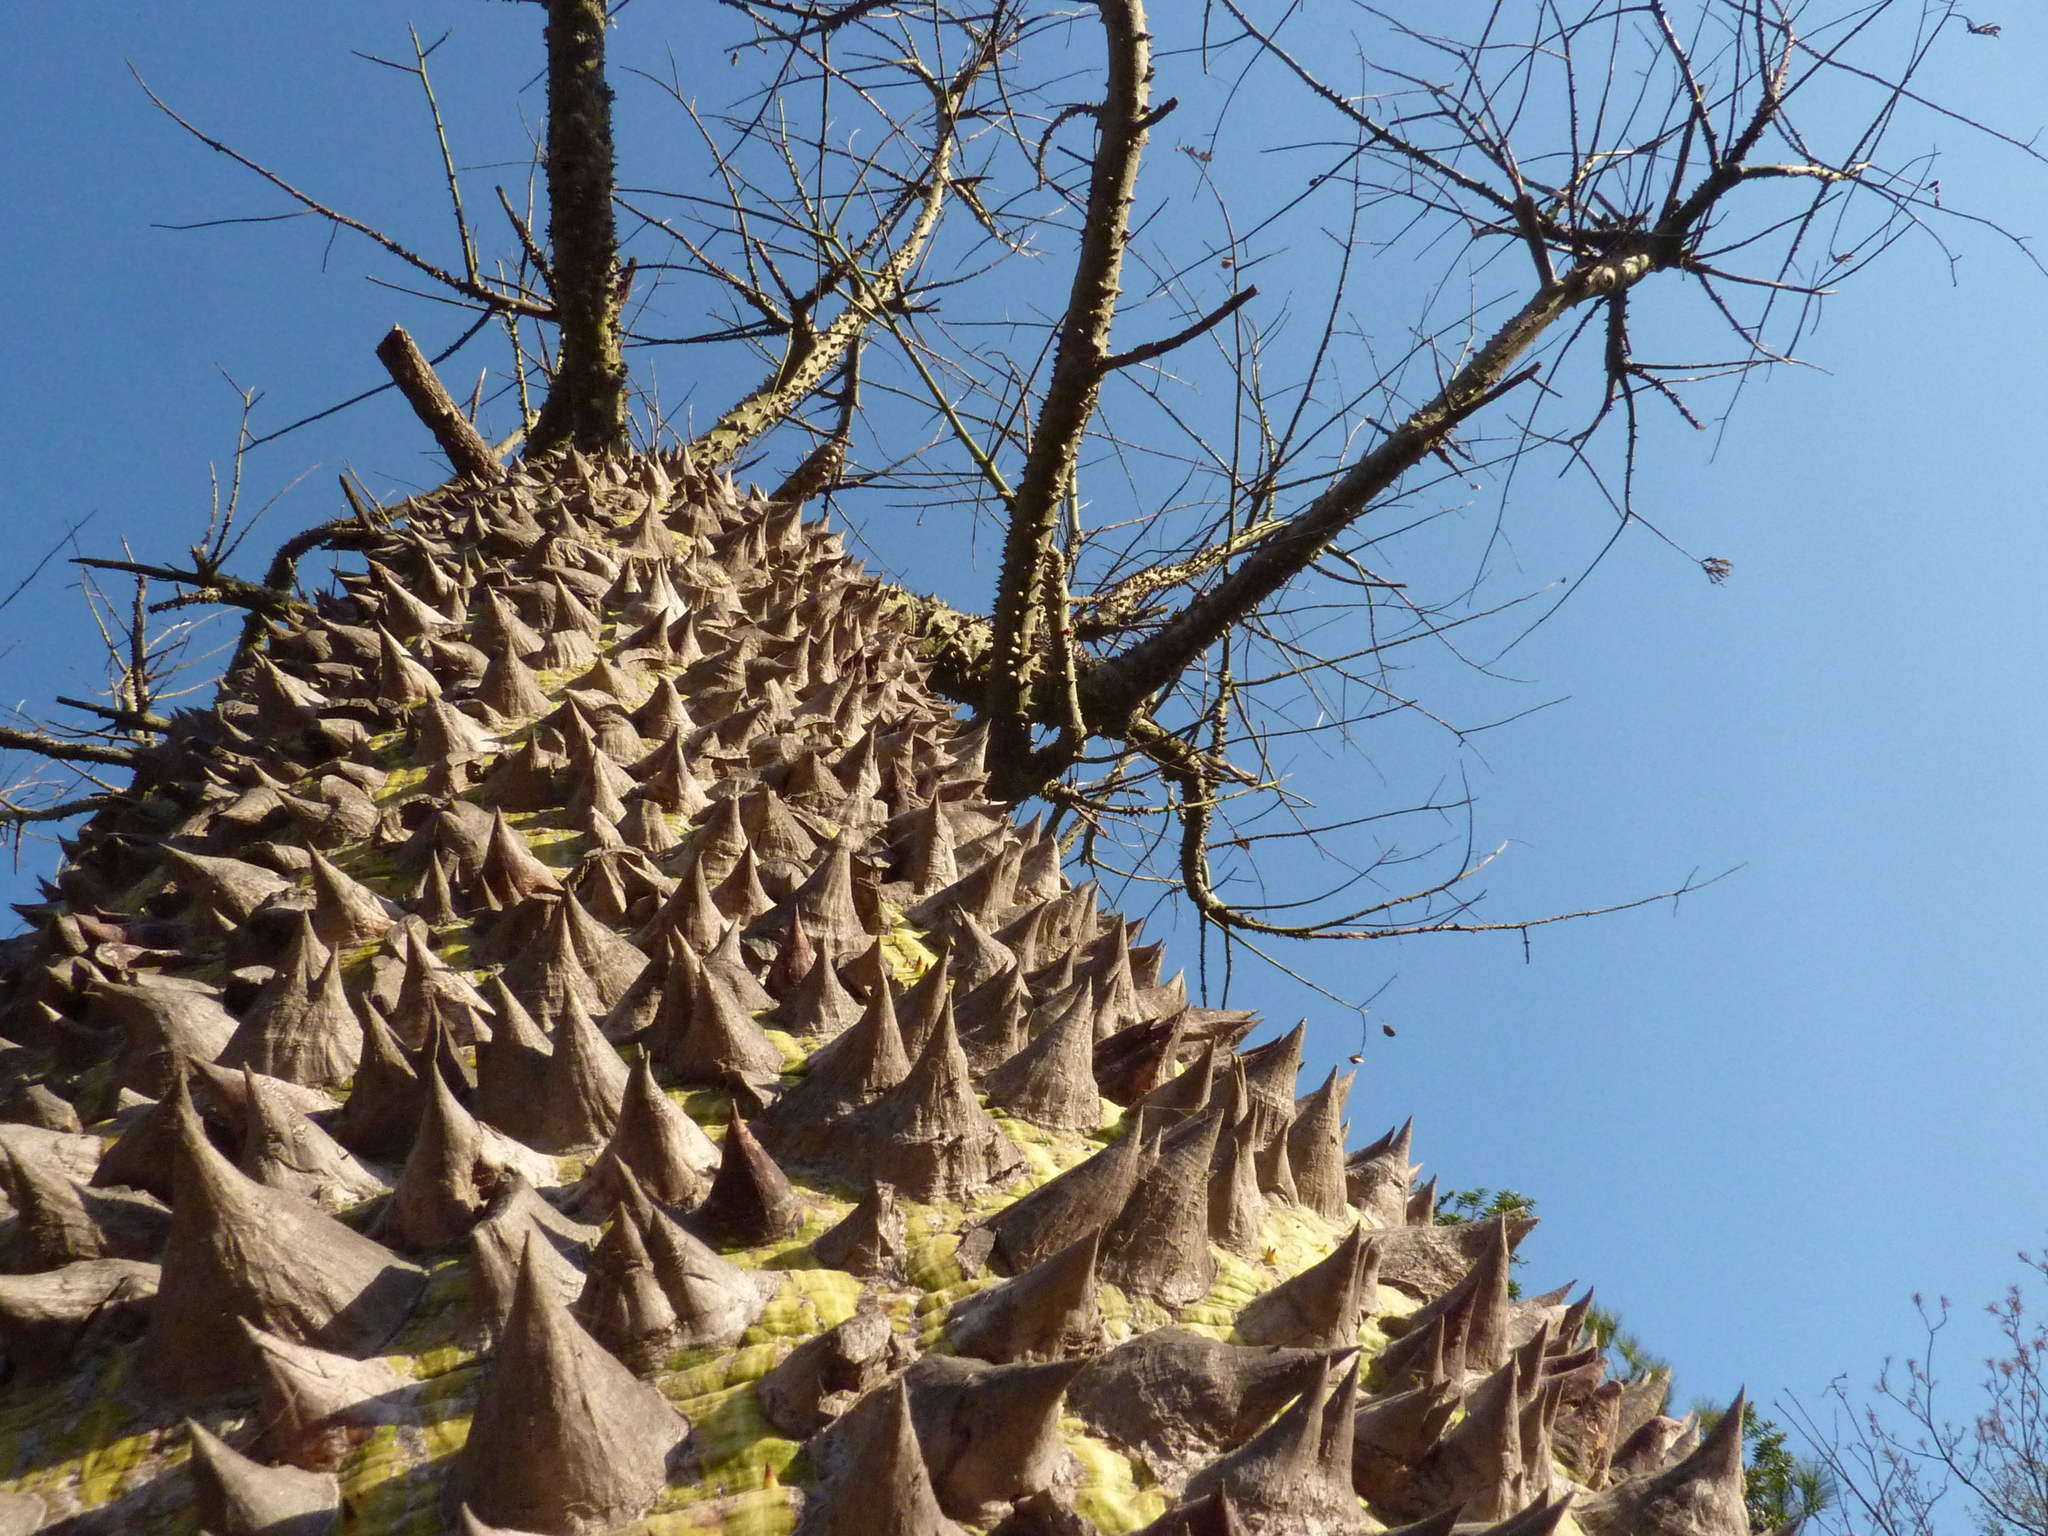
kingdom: Plantae
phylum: Tracheophyta
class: Magnoliopsida
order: Malvales
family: Malvaceae
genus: Ceiba
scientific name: Ceiba speciosa
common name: Silk-floss tree
